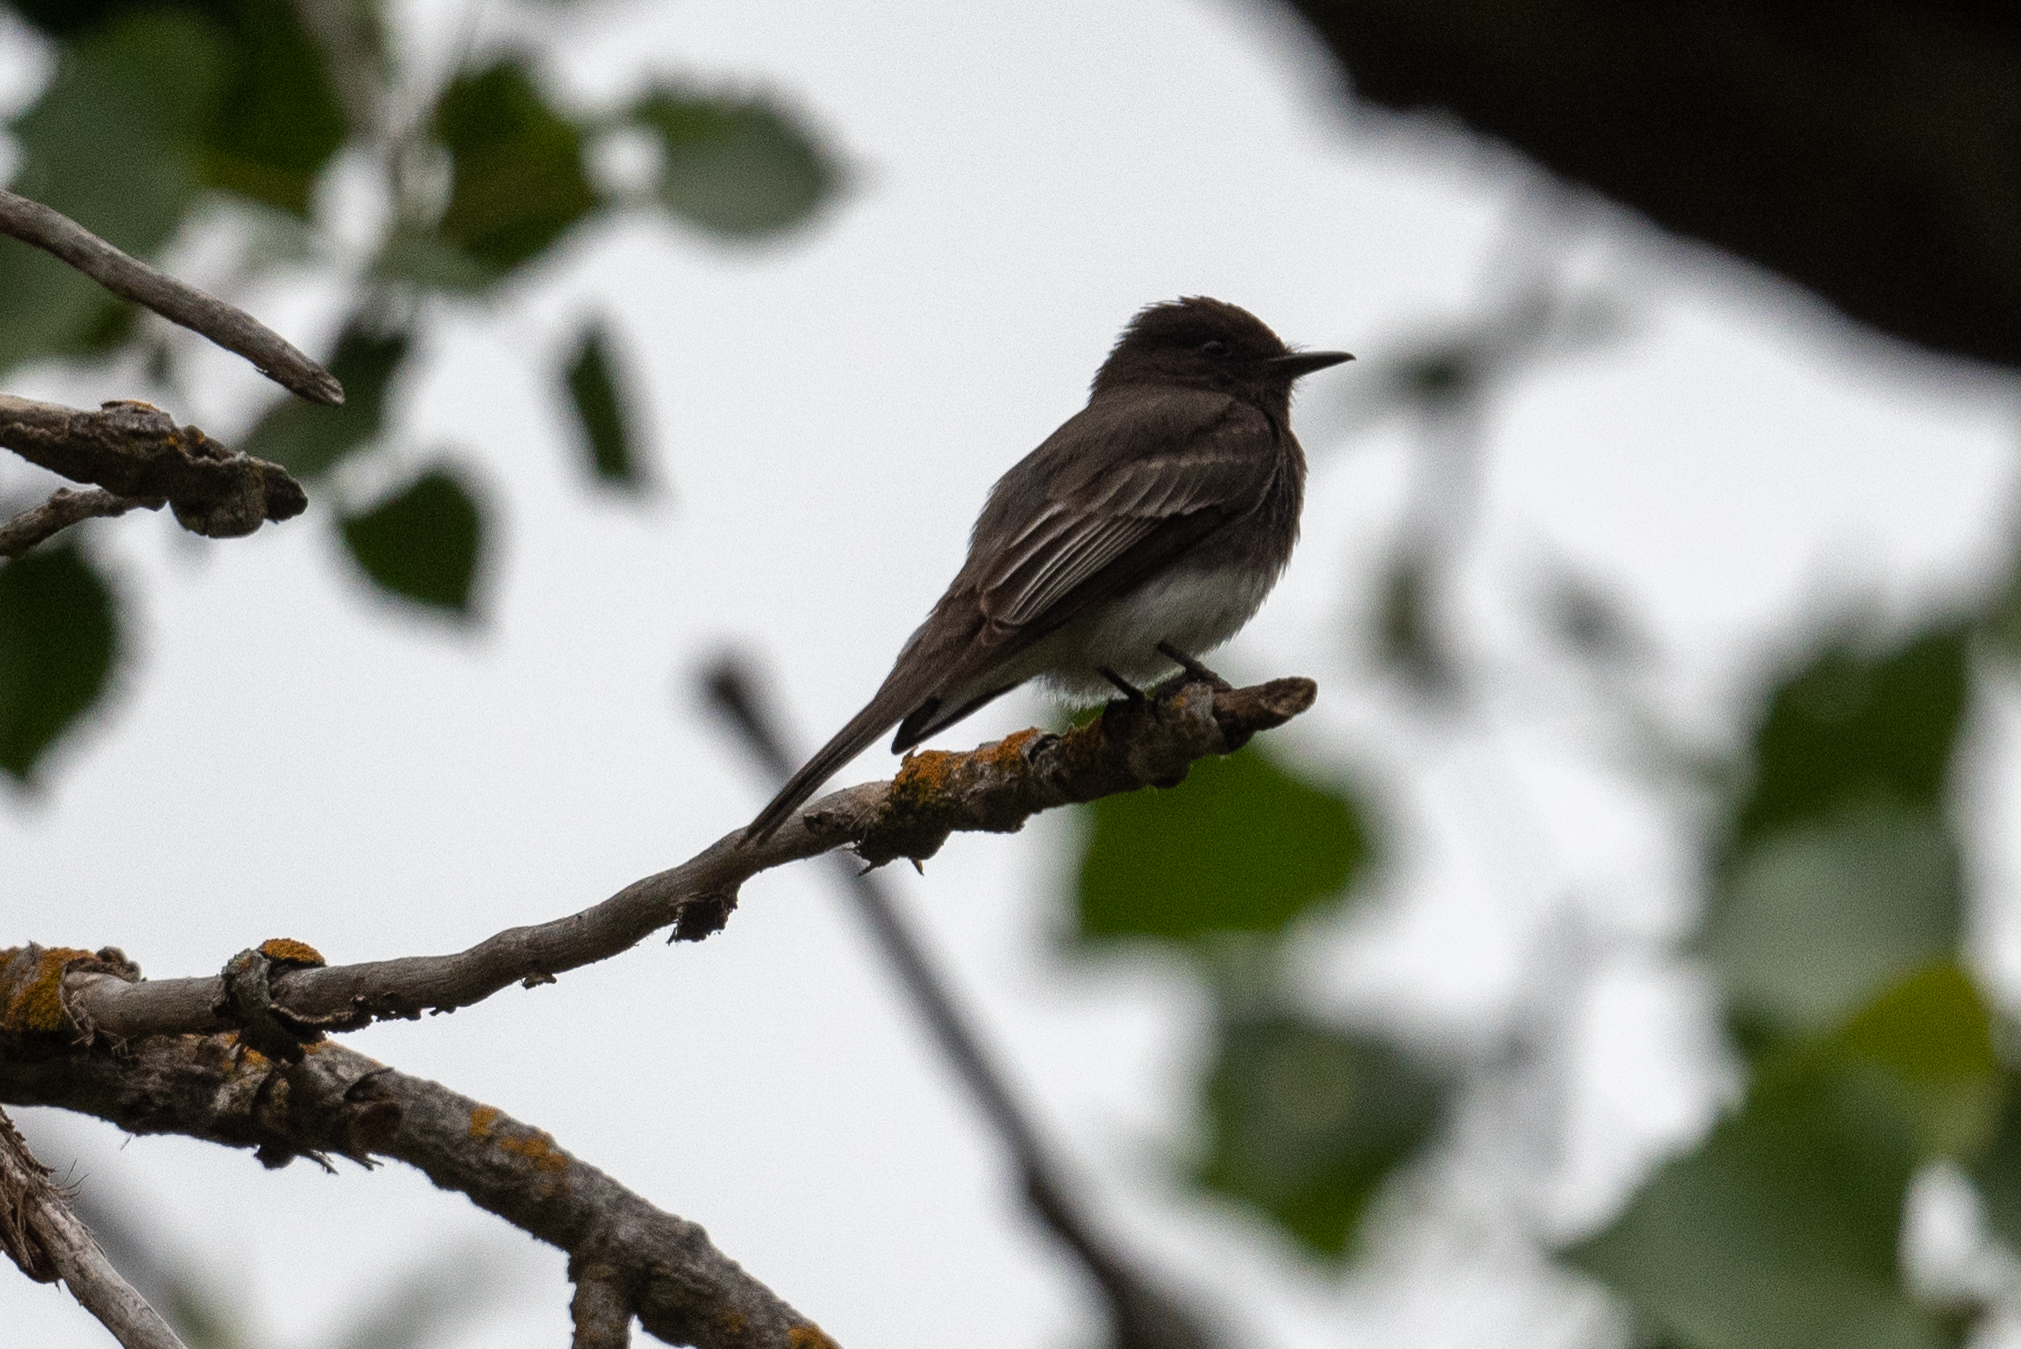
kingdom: Animalia
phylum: Chordata
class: Aves
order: Passeriformes
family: Tyrannidae
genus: Sayornis
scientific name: Sayornis nigricans
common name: Black phoebe
